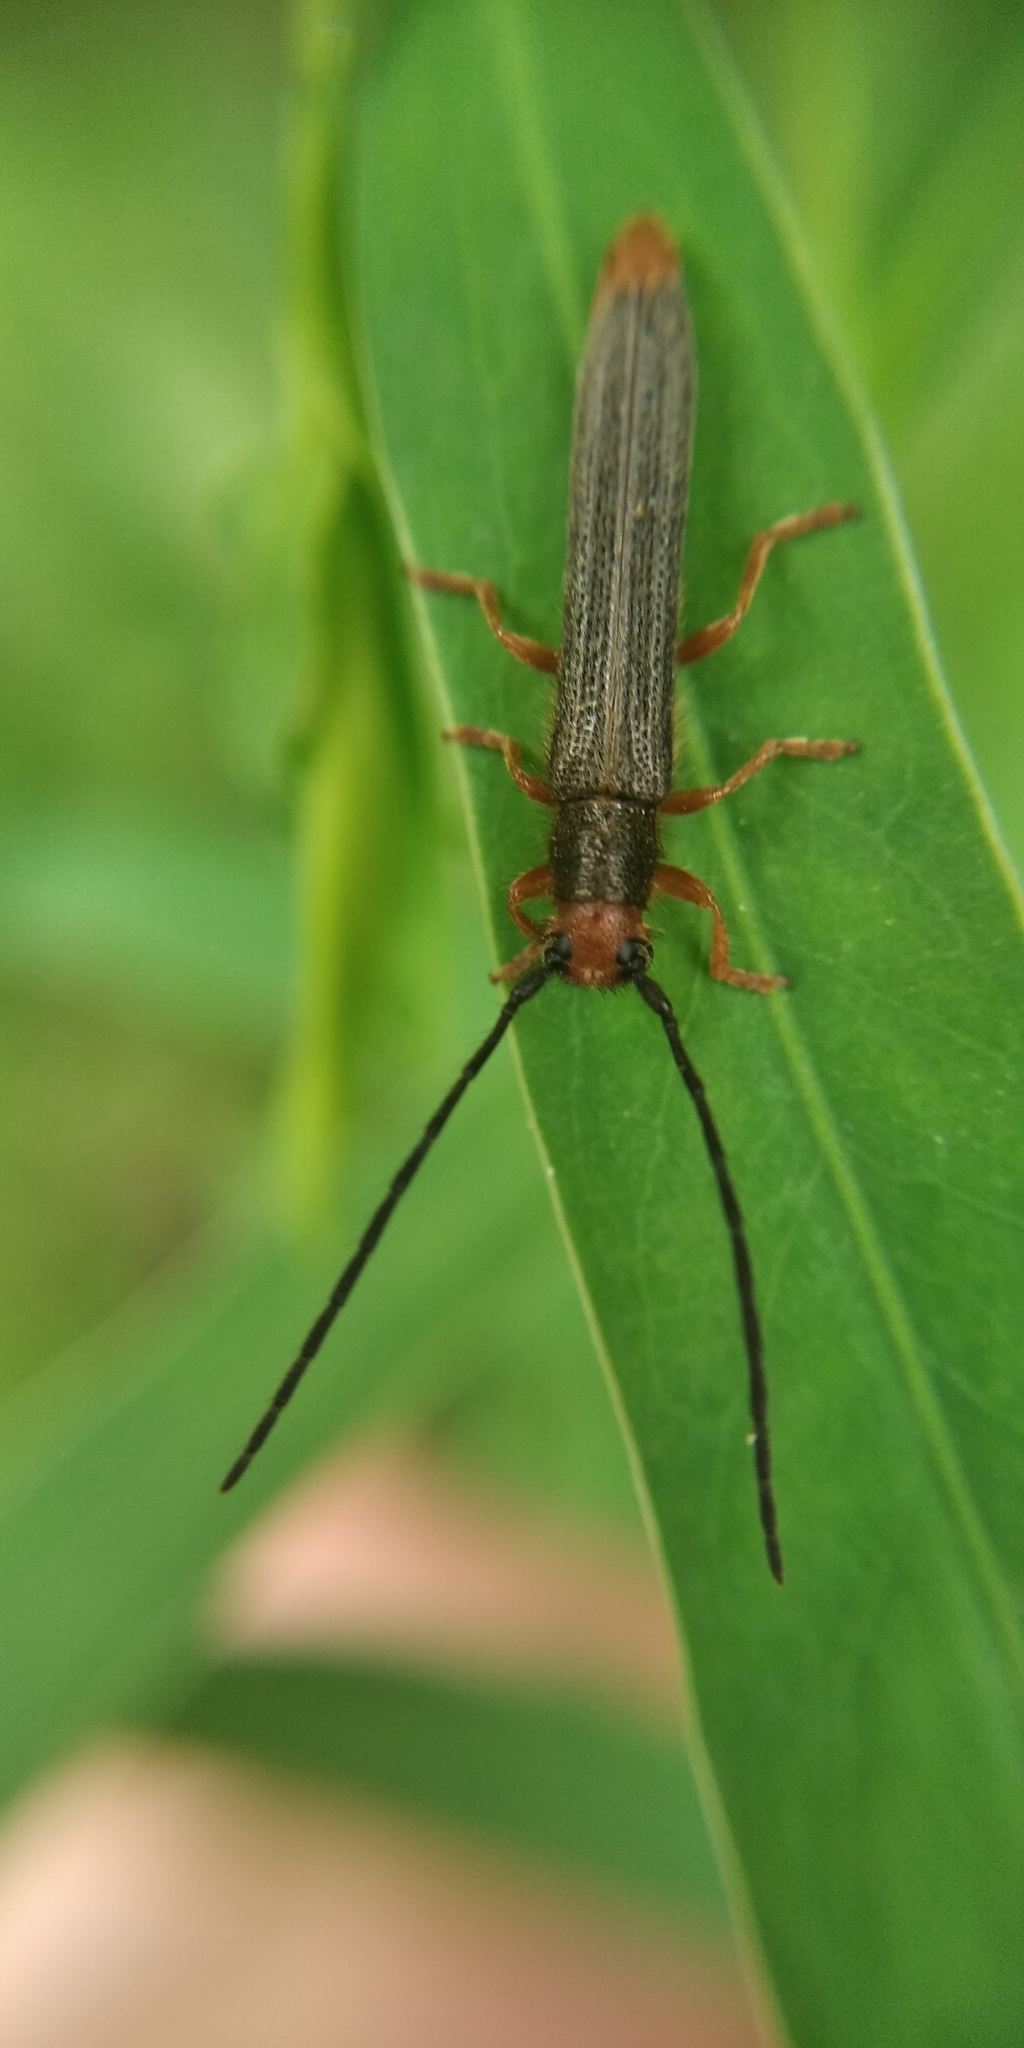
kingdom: Animalia
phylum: Arthropoda
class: Insecta
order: Coleoptera
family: Cerambycidae
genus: Oberea
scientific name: Oberea erythrocephala
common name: Leafy spurge stem boring beetle
